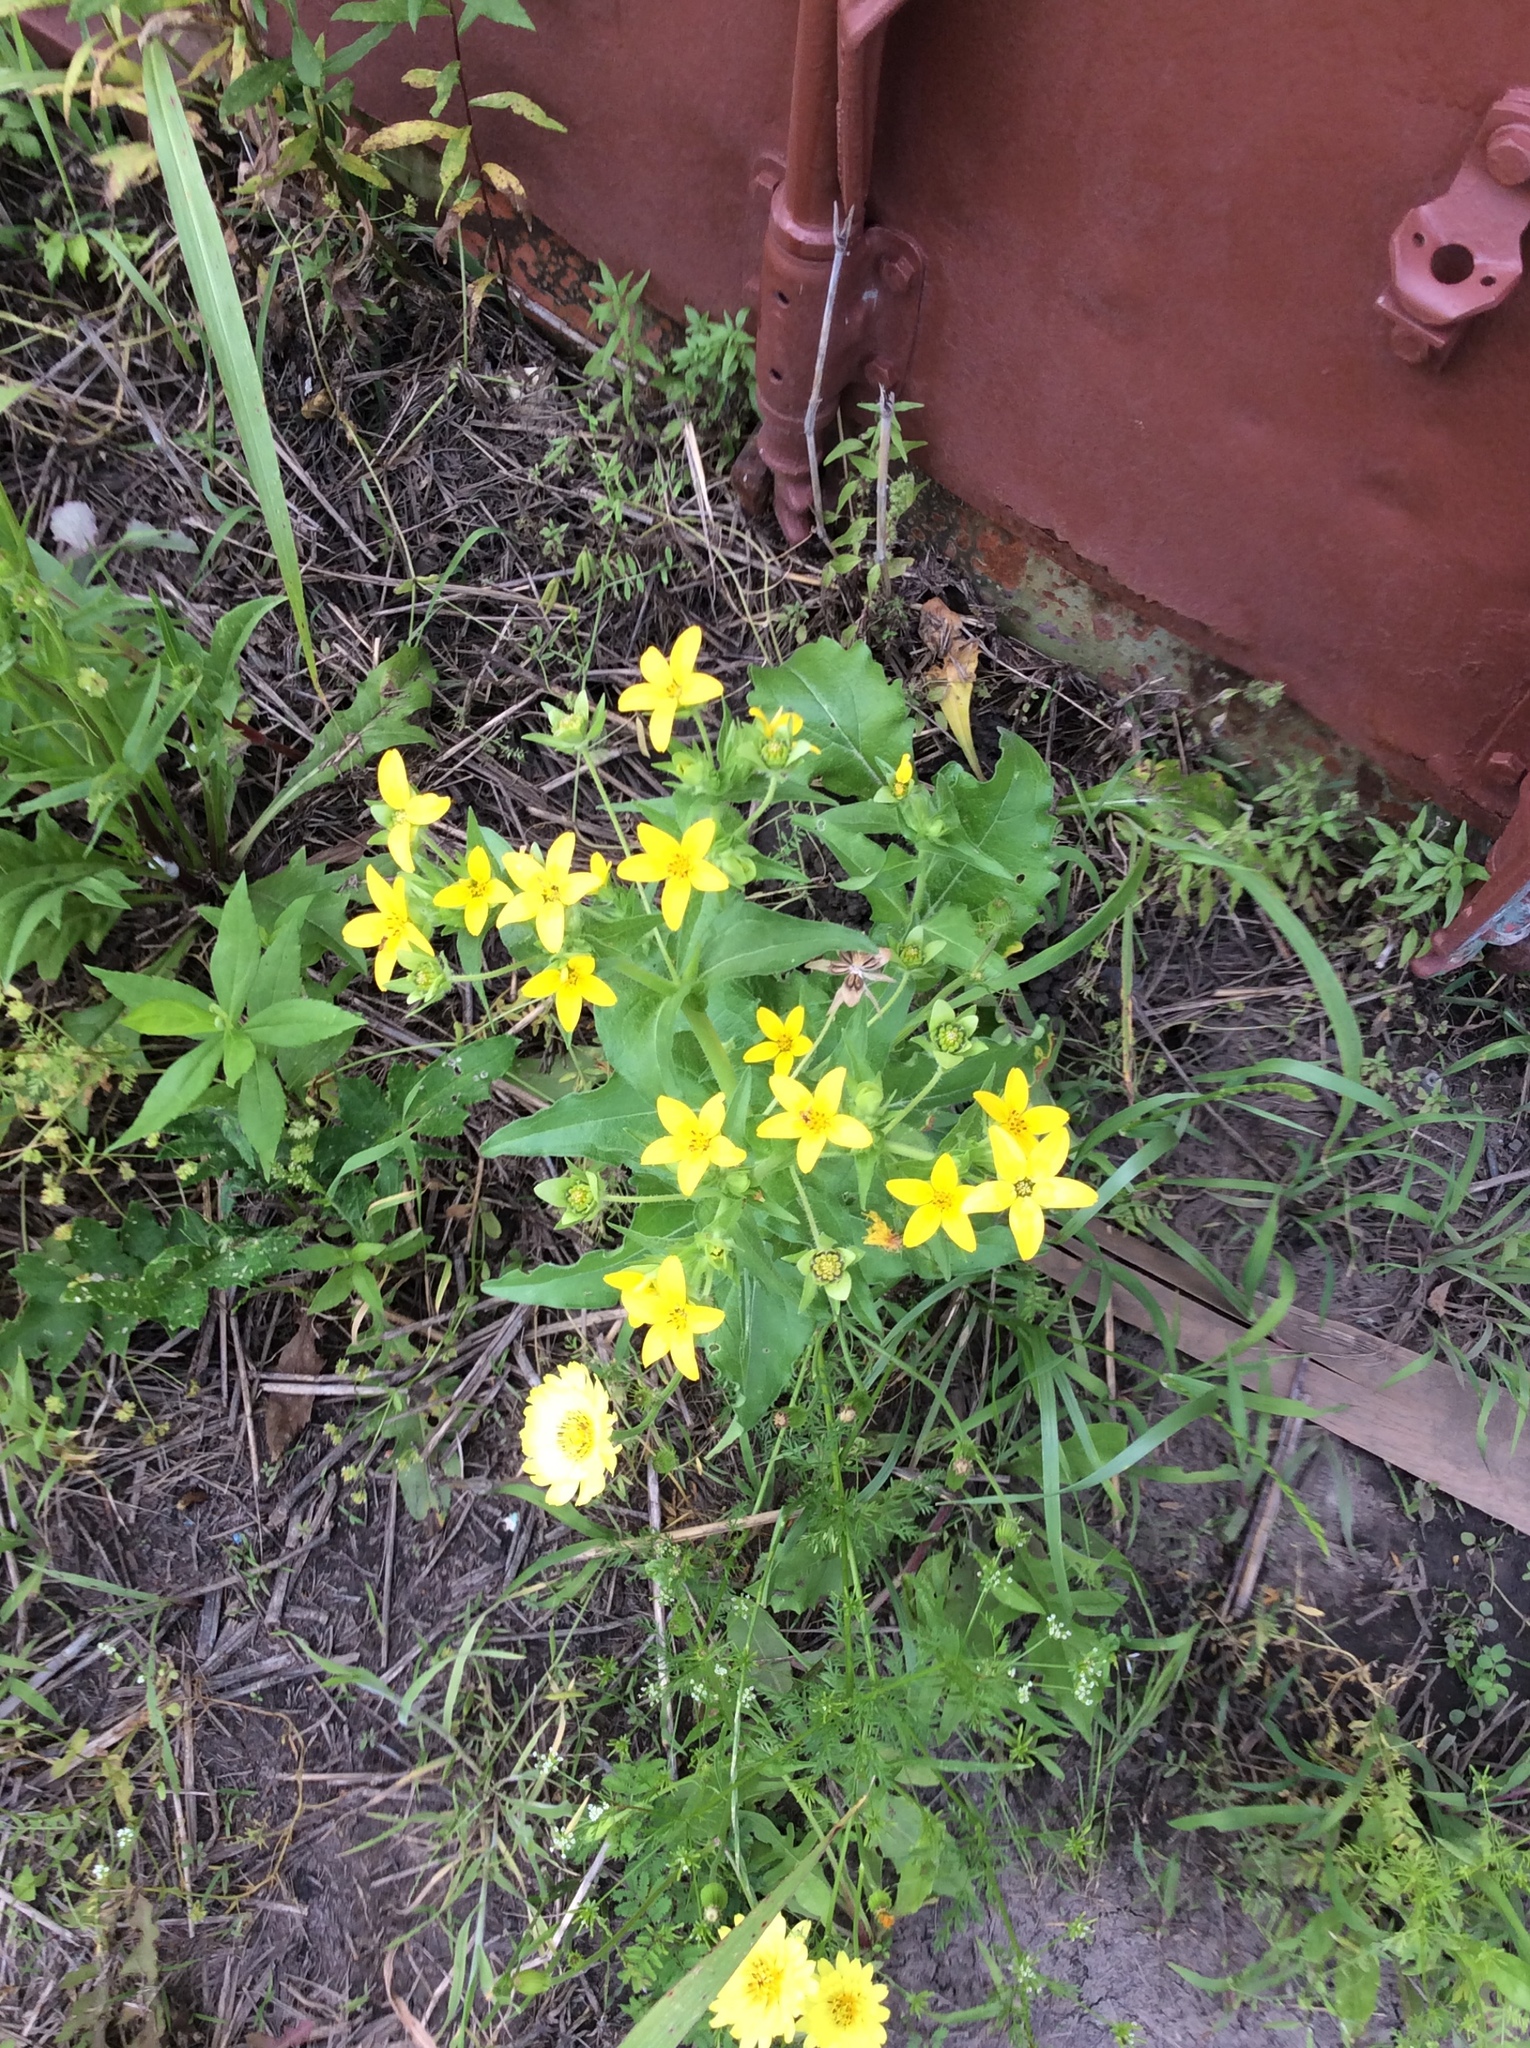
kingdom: Plantae
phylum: Tracheophyta
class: Magnoliopsida
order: Asterales
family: Asteraceae
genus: Lindheimera
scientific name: Lindheimera texana
